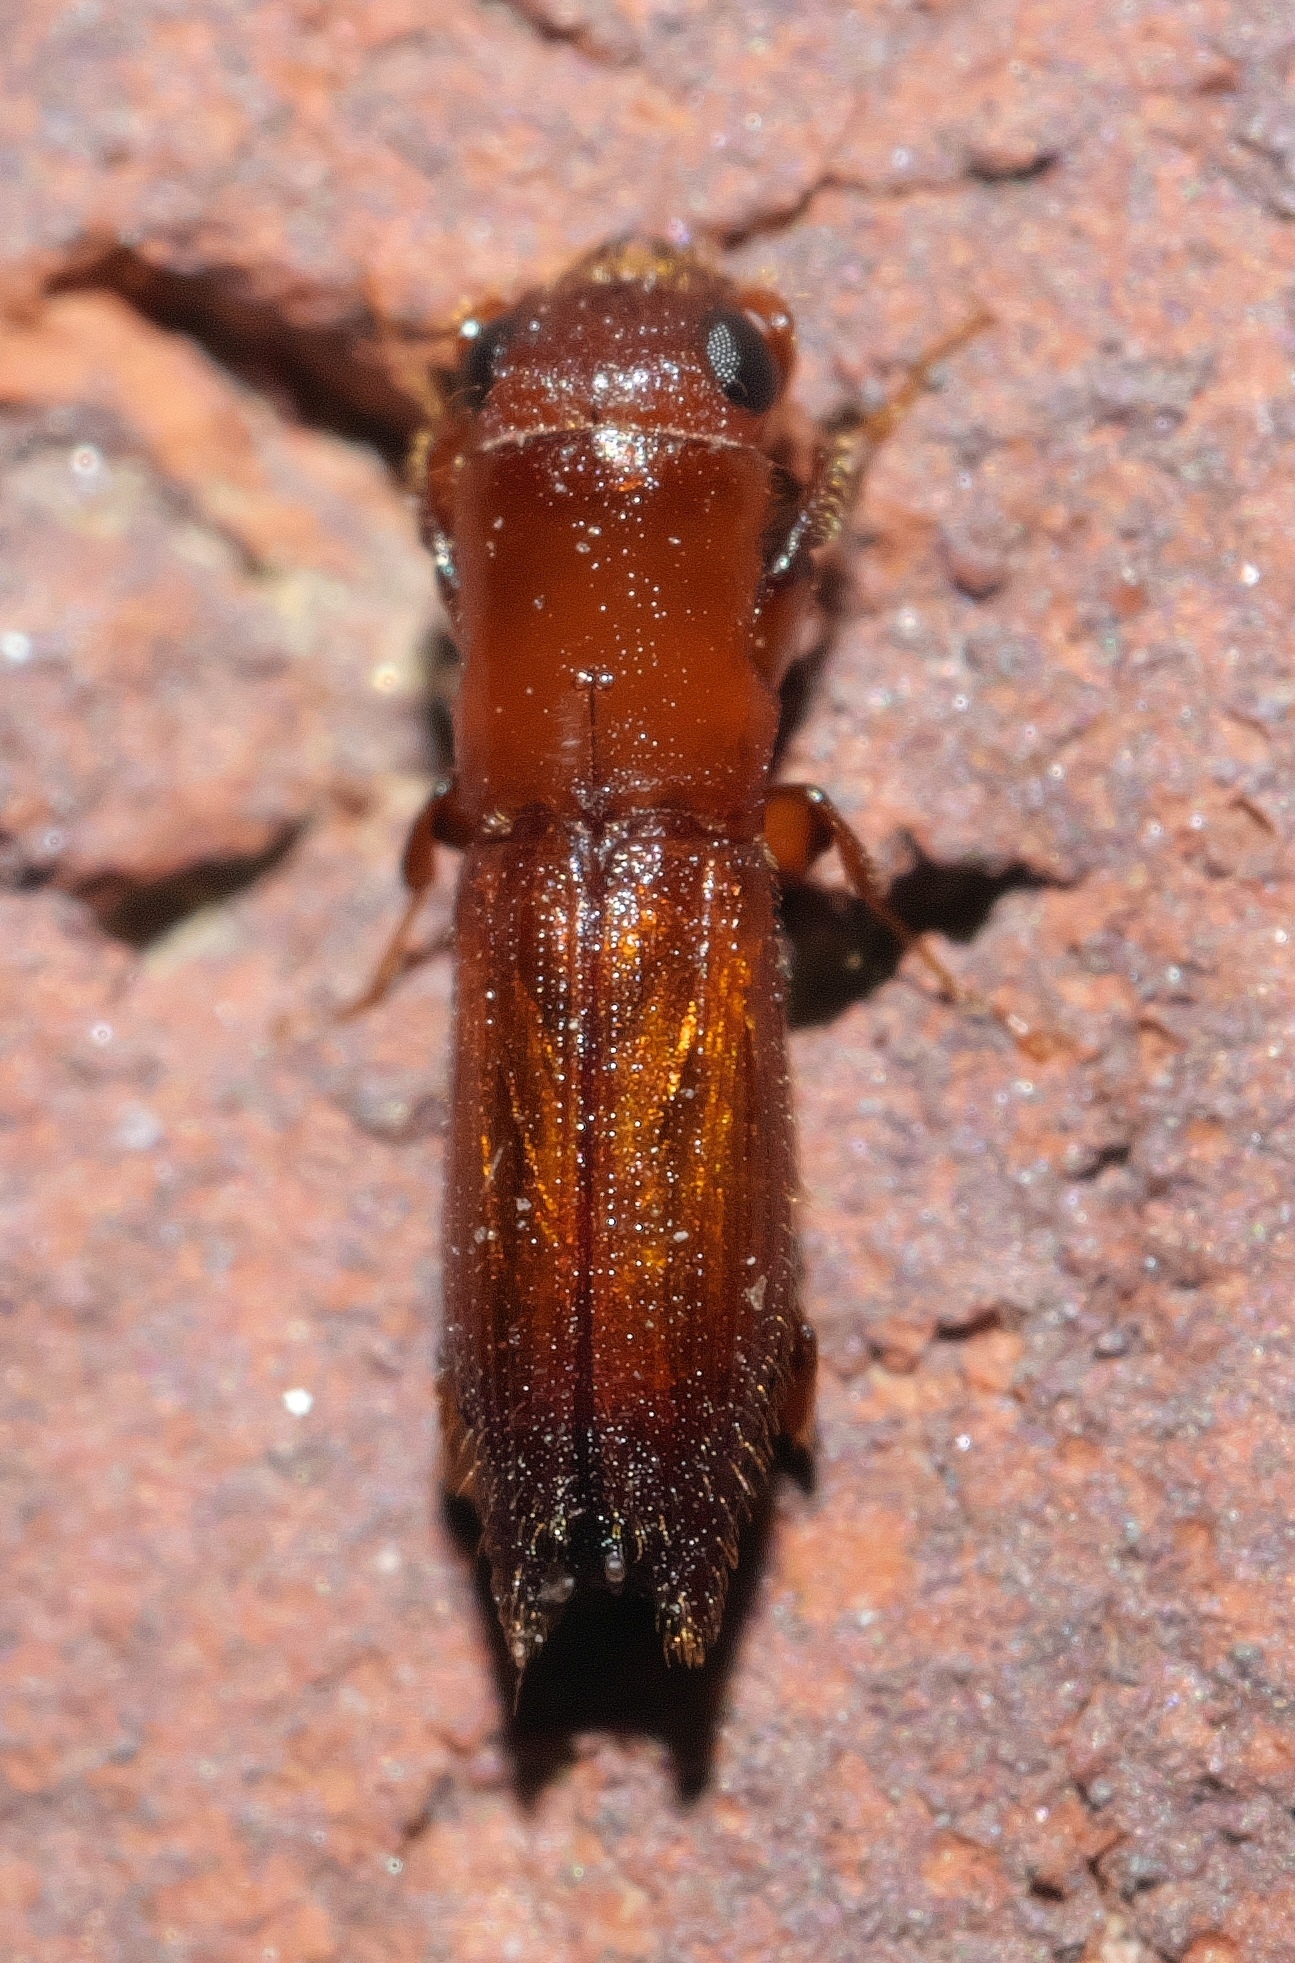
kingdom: Animalia
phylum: Arthropoda
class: Insecta
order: Coleoptera
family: Curculionidae
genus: Euplatypus
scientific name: Euplatypus compositus
